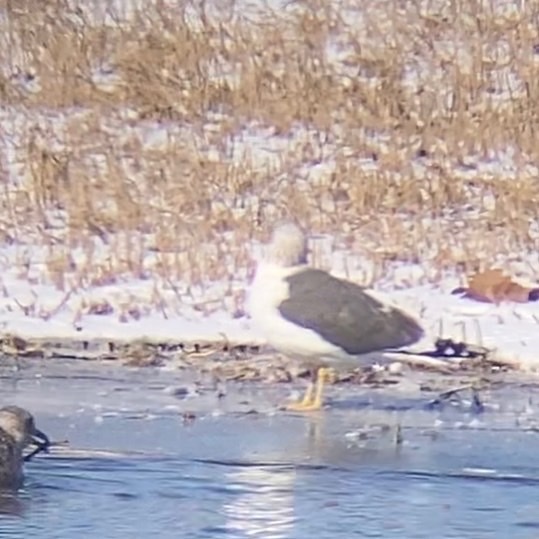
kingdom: Animalia
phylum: Chordata
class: Aves
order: Charadriiformes
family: Laridae
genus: Larus
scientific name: Larus fuscus
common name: Lesser black-backed gull
